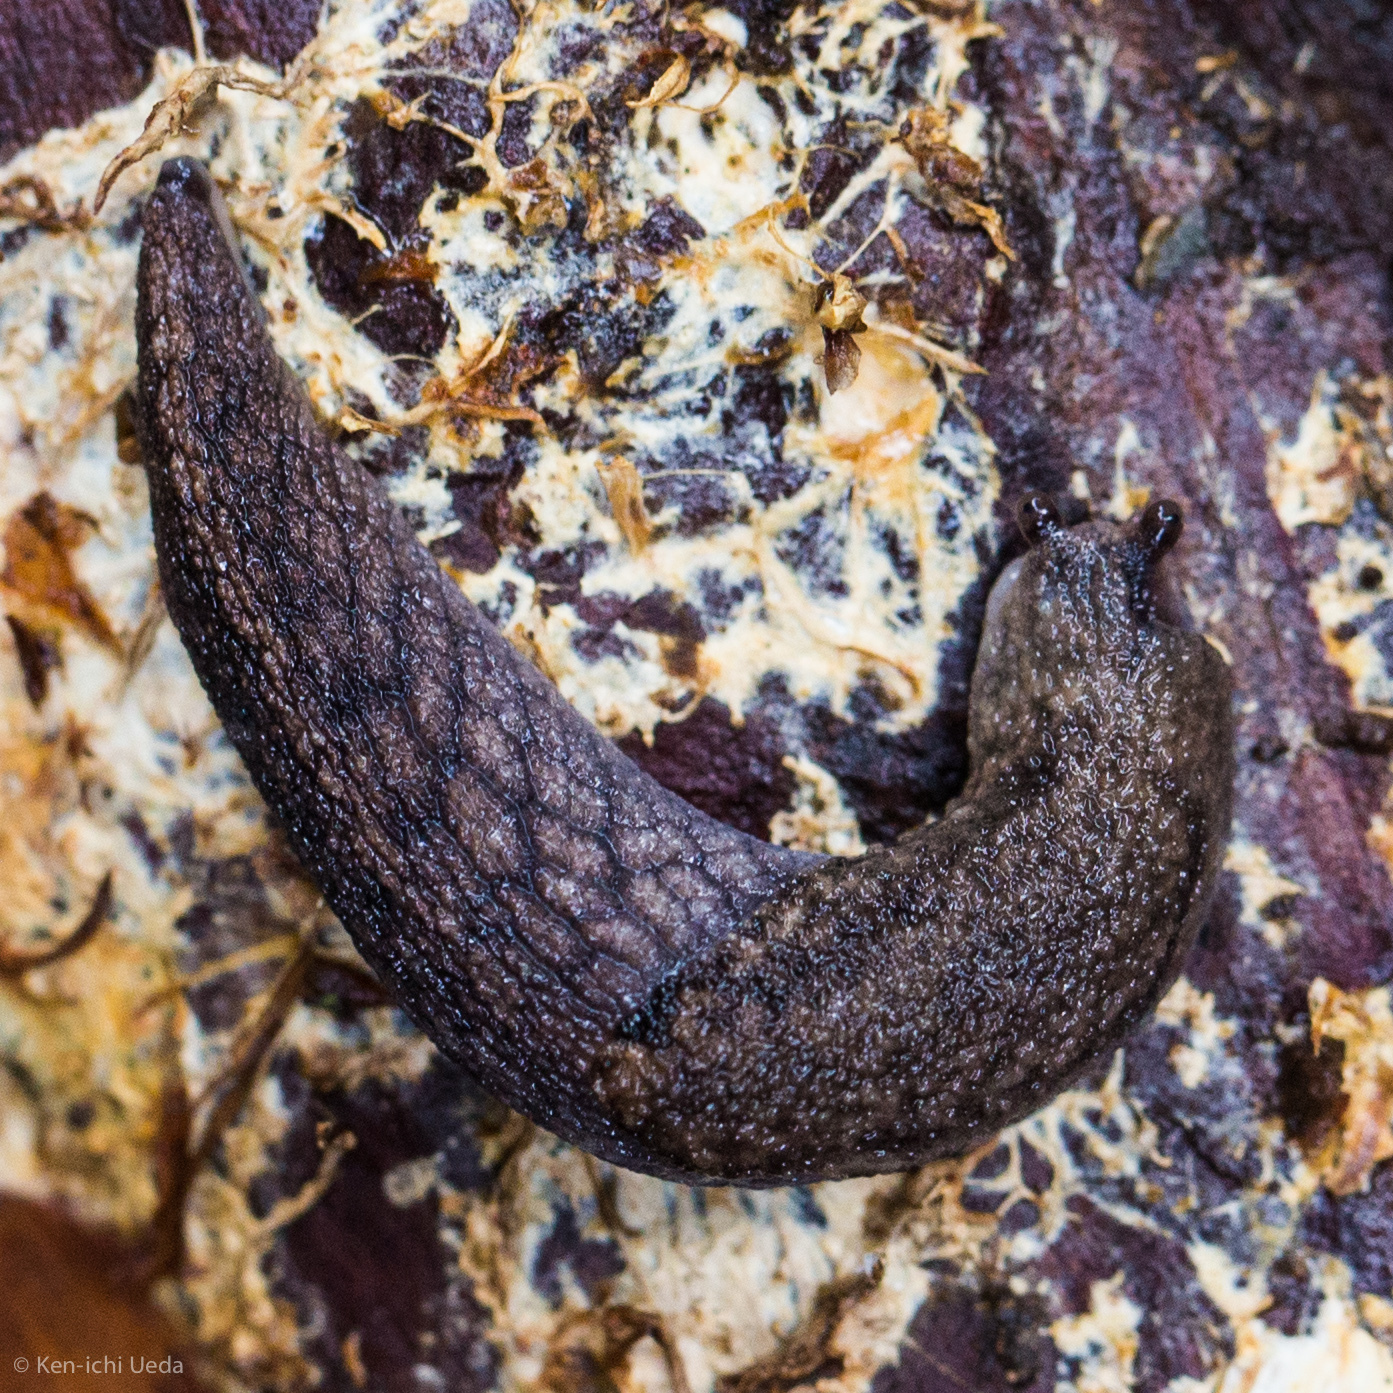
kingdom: Animalia
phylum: Mollusca
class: Gastropoda
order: Stylommatophora
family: Ariolimacidae
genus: Prophysaon
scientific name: Prophysaon andersonii
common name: Reticulate taildropper
